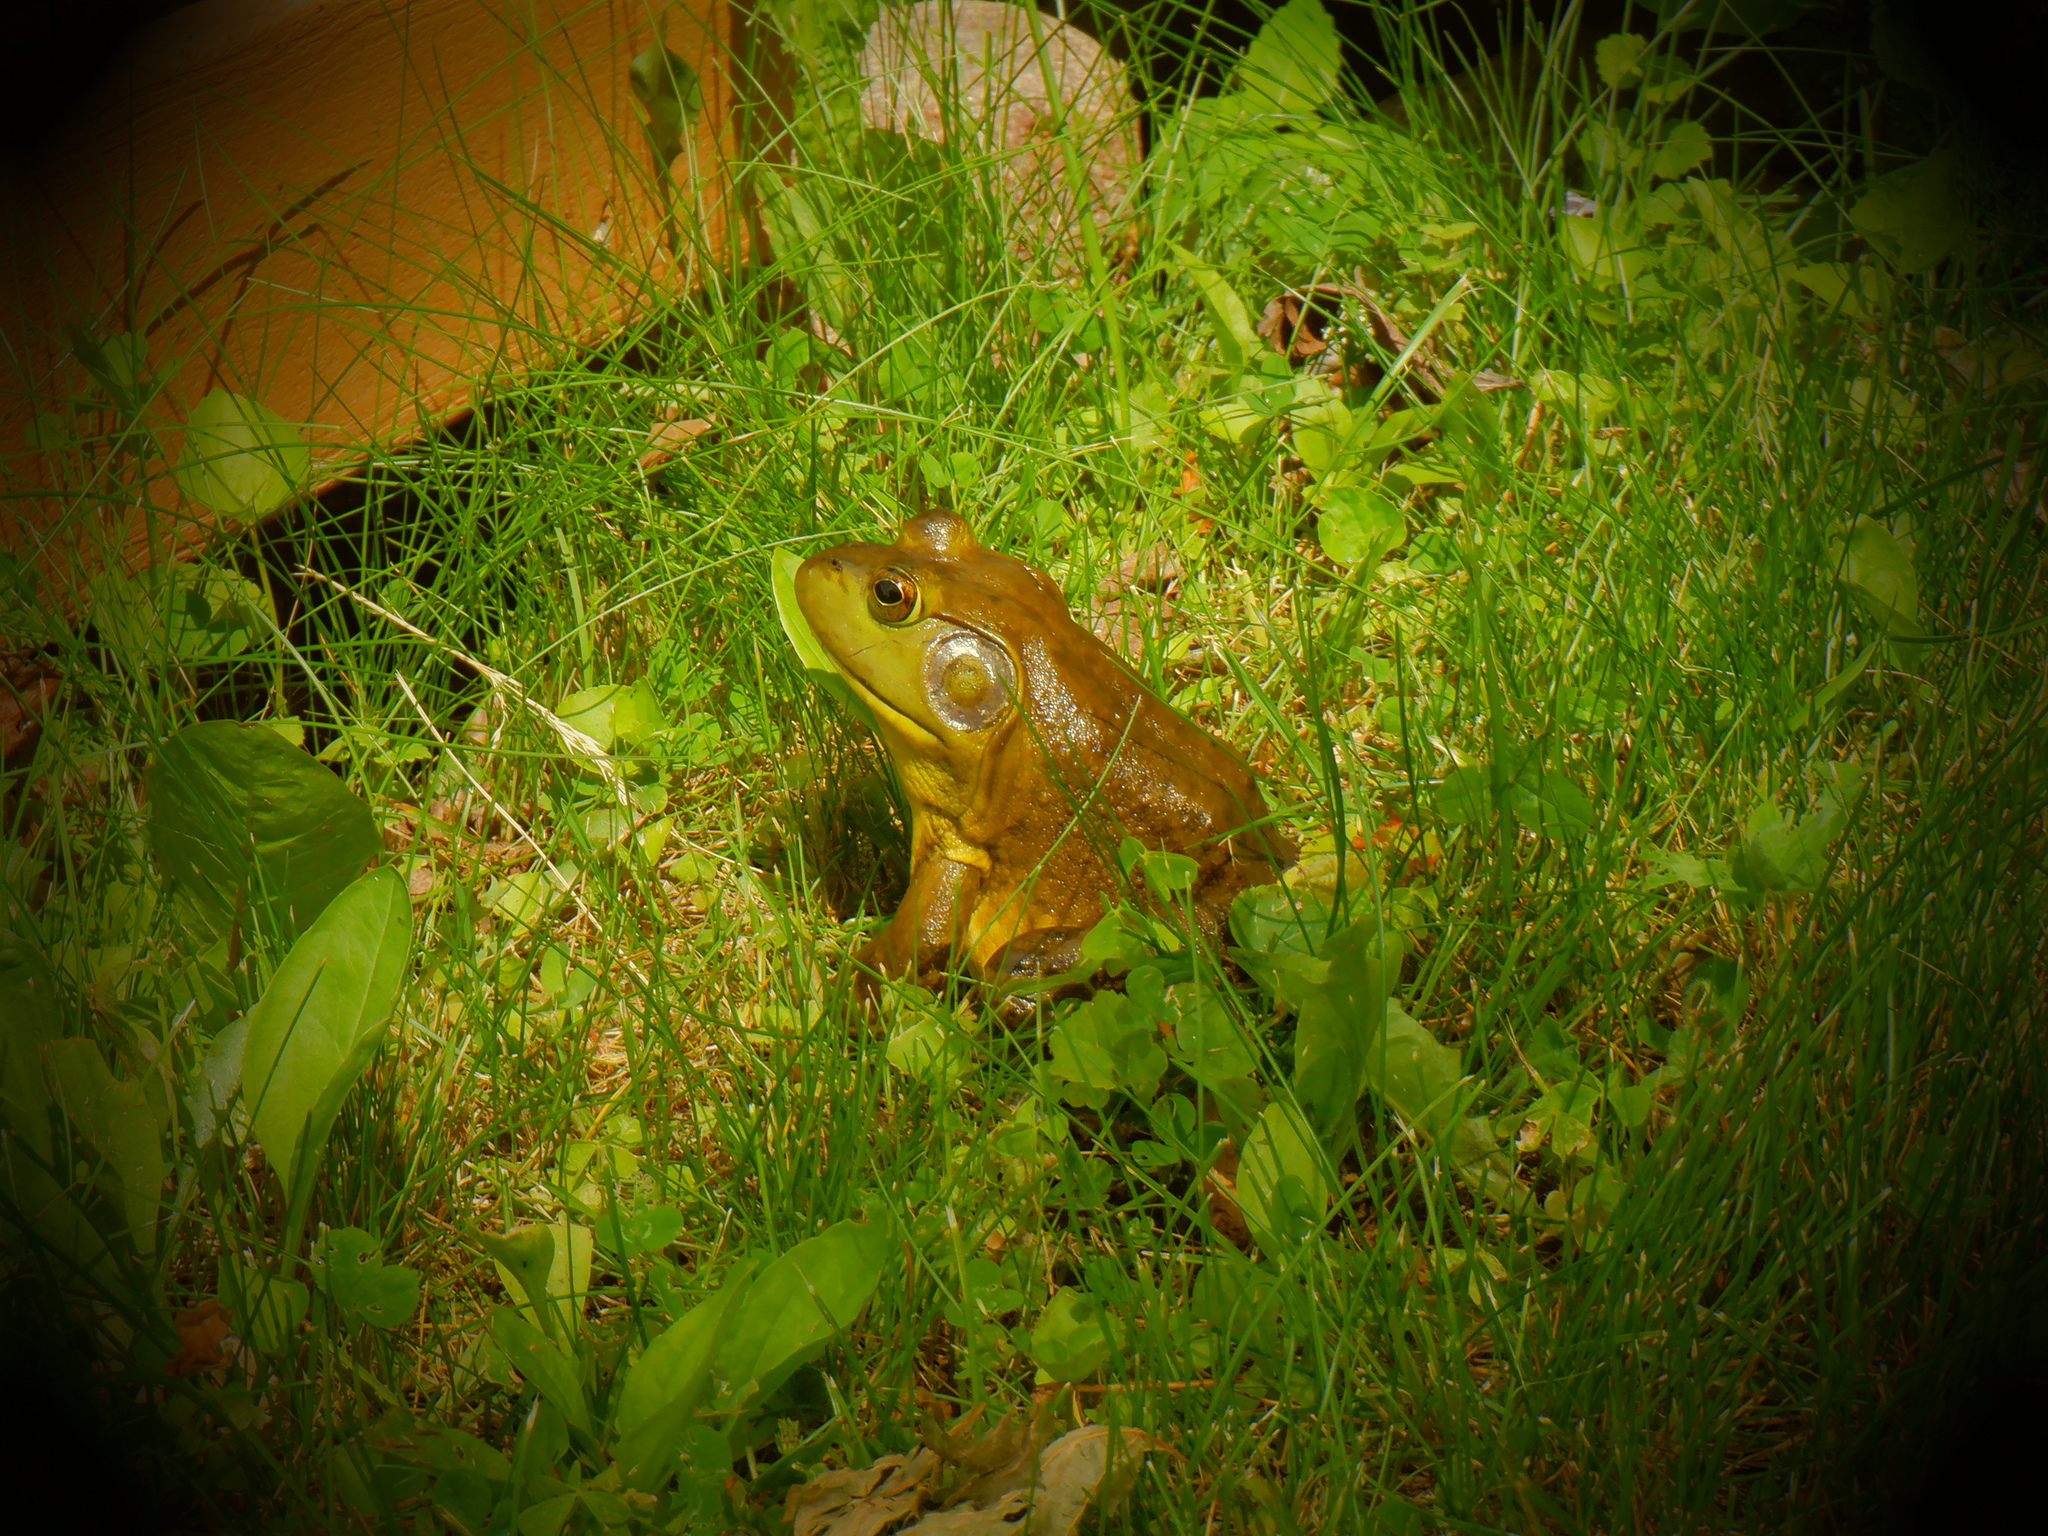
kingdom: Animalia
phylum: Chordata
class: Amphibia
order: Anura
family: Ranidae
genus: Lithobates
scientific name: Lithobates catesbeianus
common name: American bullfrog
